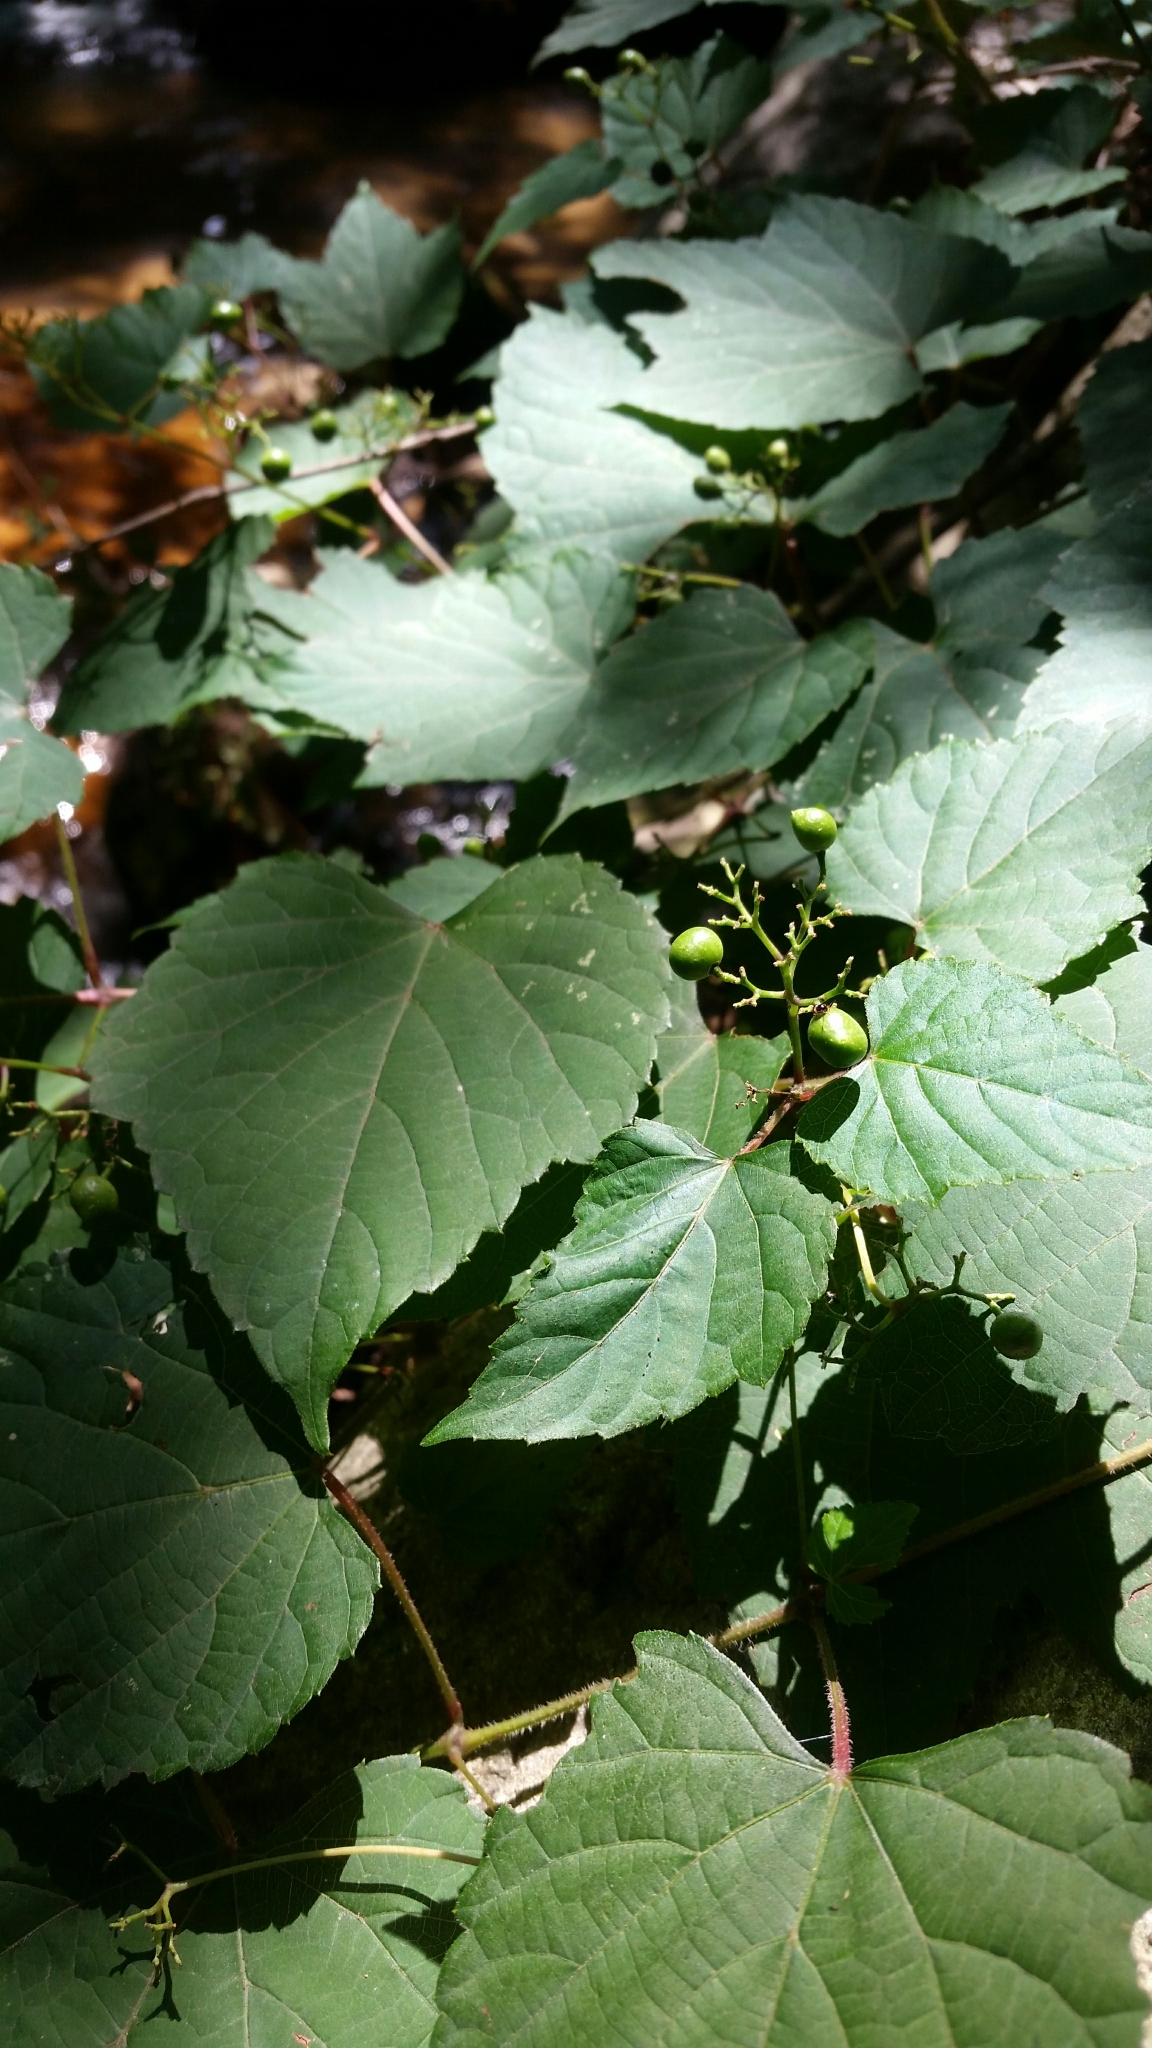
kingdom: Plantae
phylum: Tracheophyta
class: Magnoliopsida
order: Vitales
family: Vitaceae
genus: Ampelopsis
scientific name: Ampelopsis glandulosa
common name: Amur peppervine
